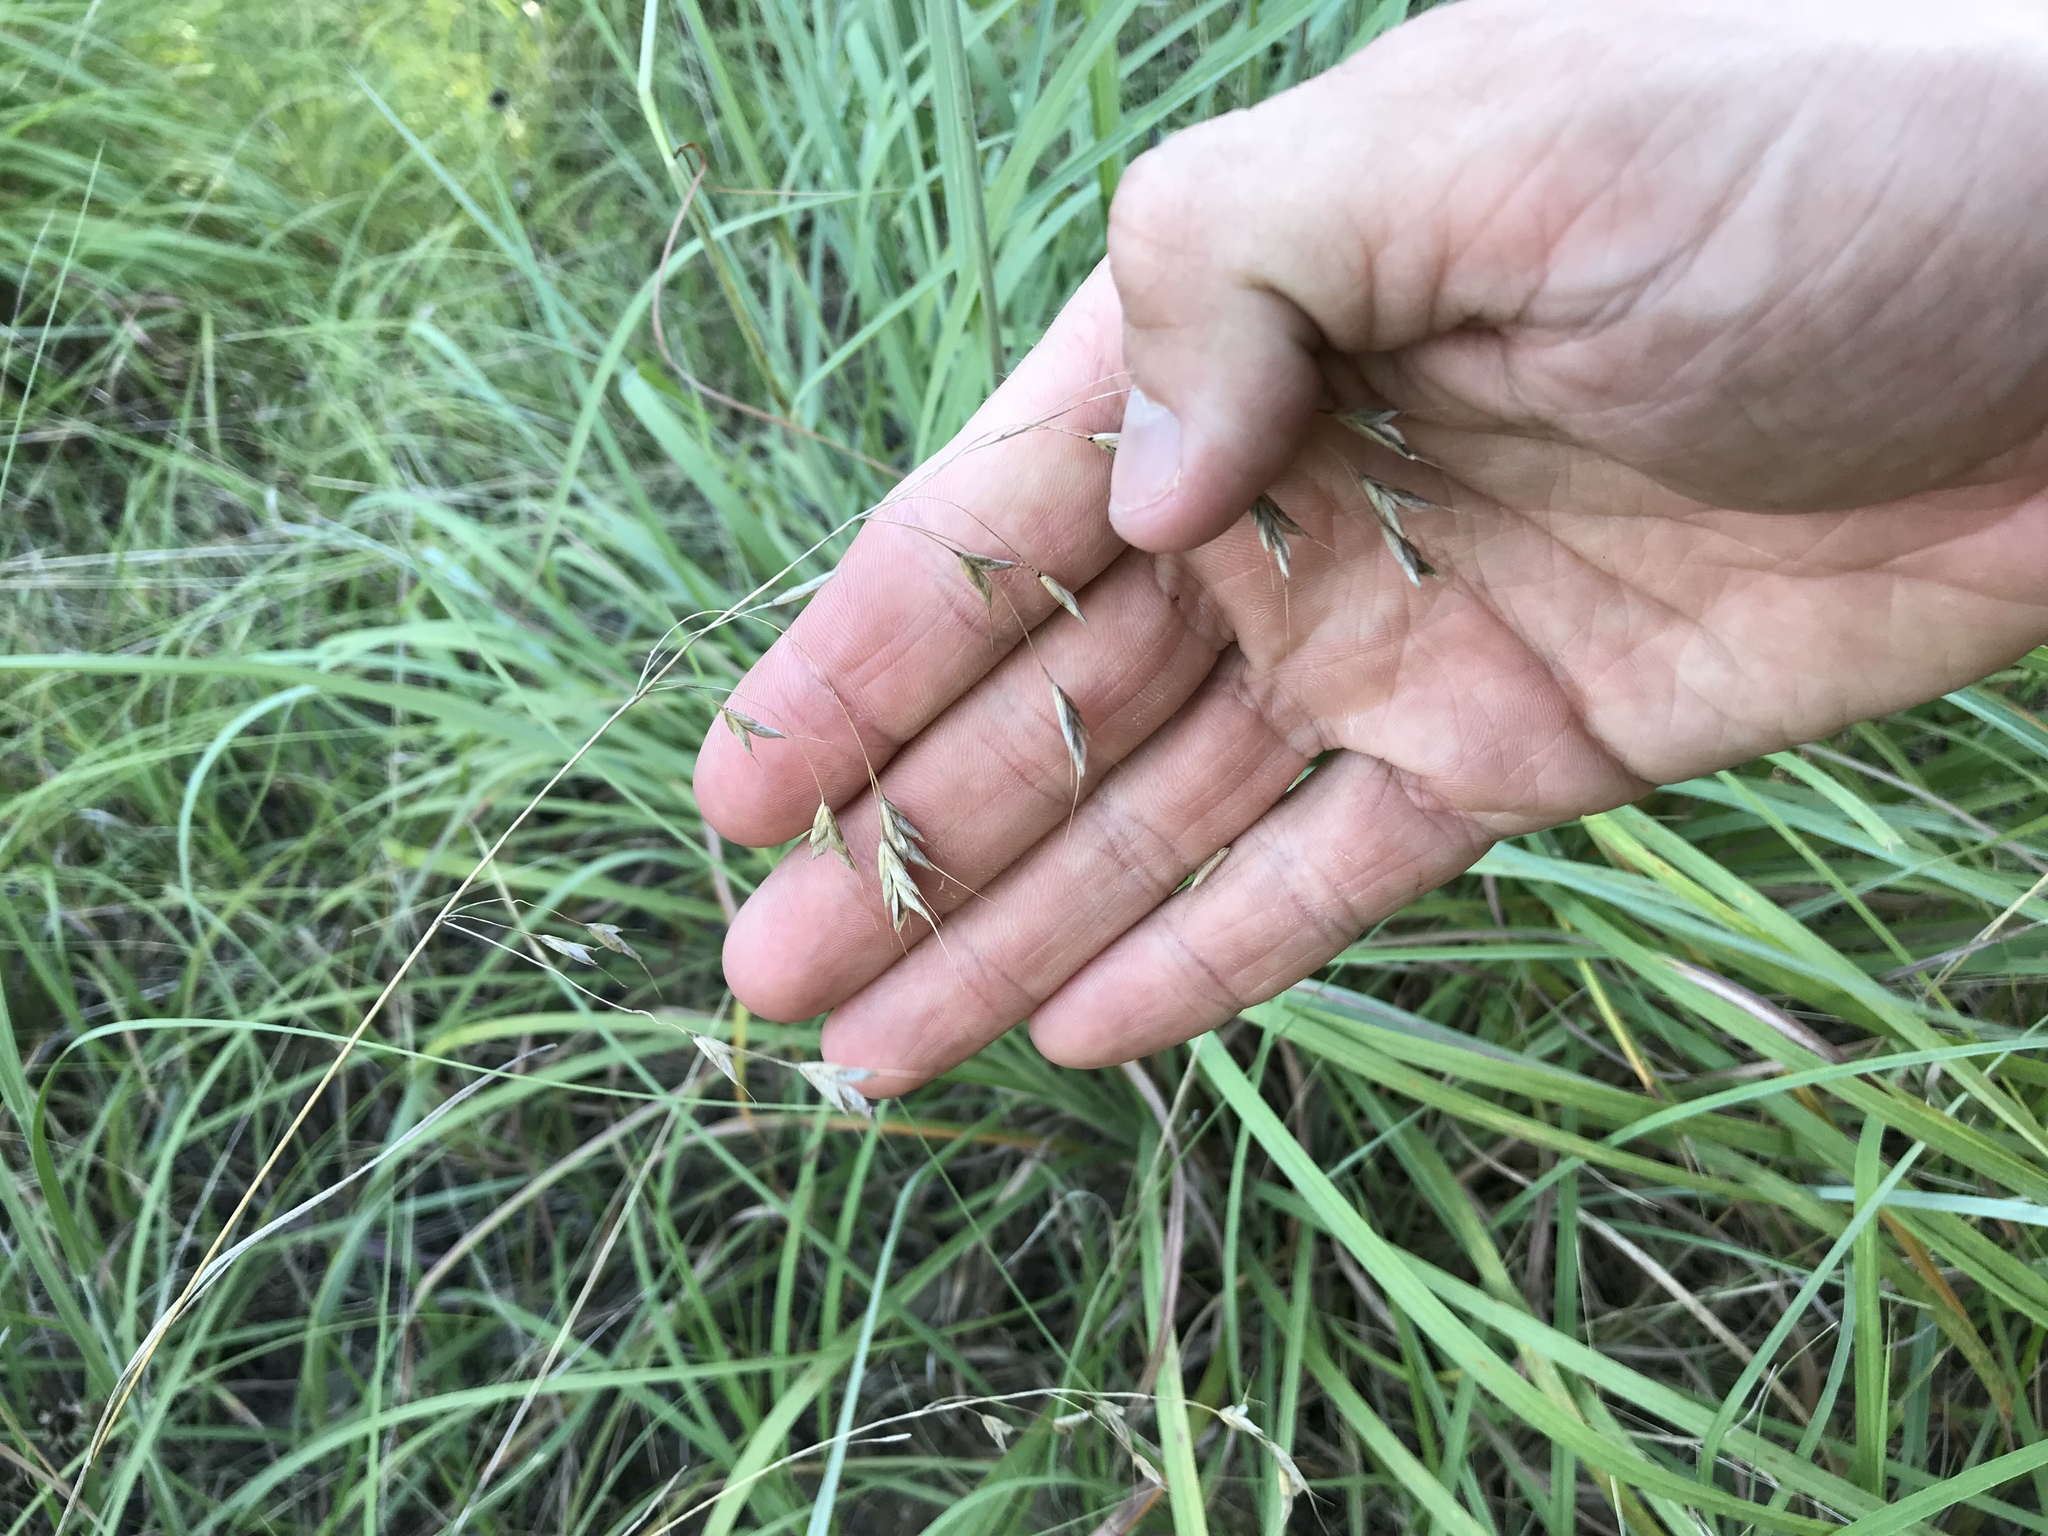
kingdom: Plantae
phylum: Tracheophyta
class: Liliopsida
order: Poales
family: Poaceae
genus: Bromus
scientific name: Bromus japonicus
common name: Japanese brome
